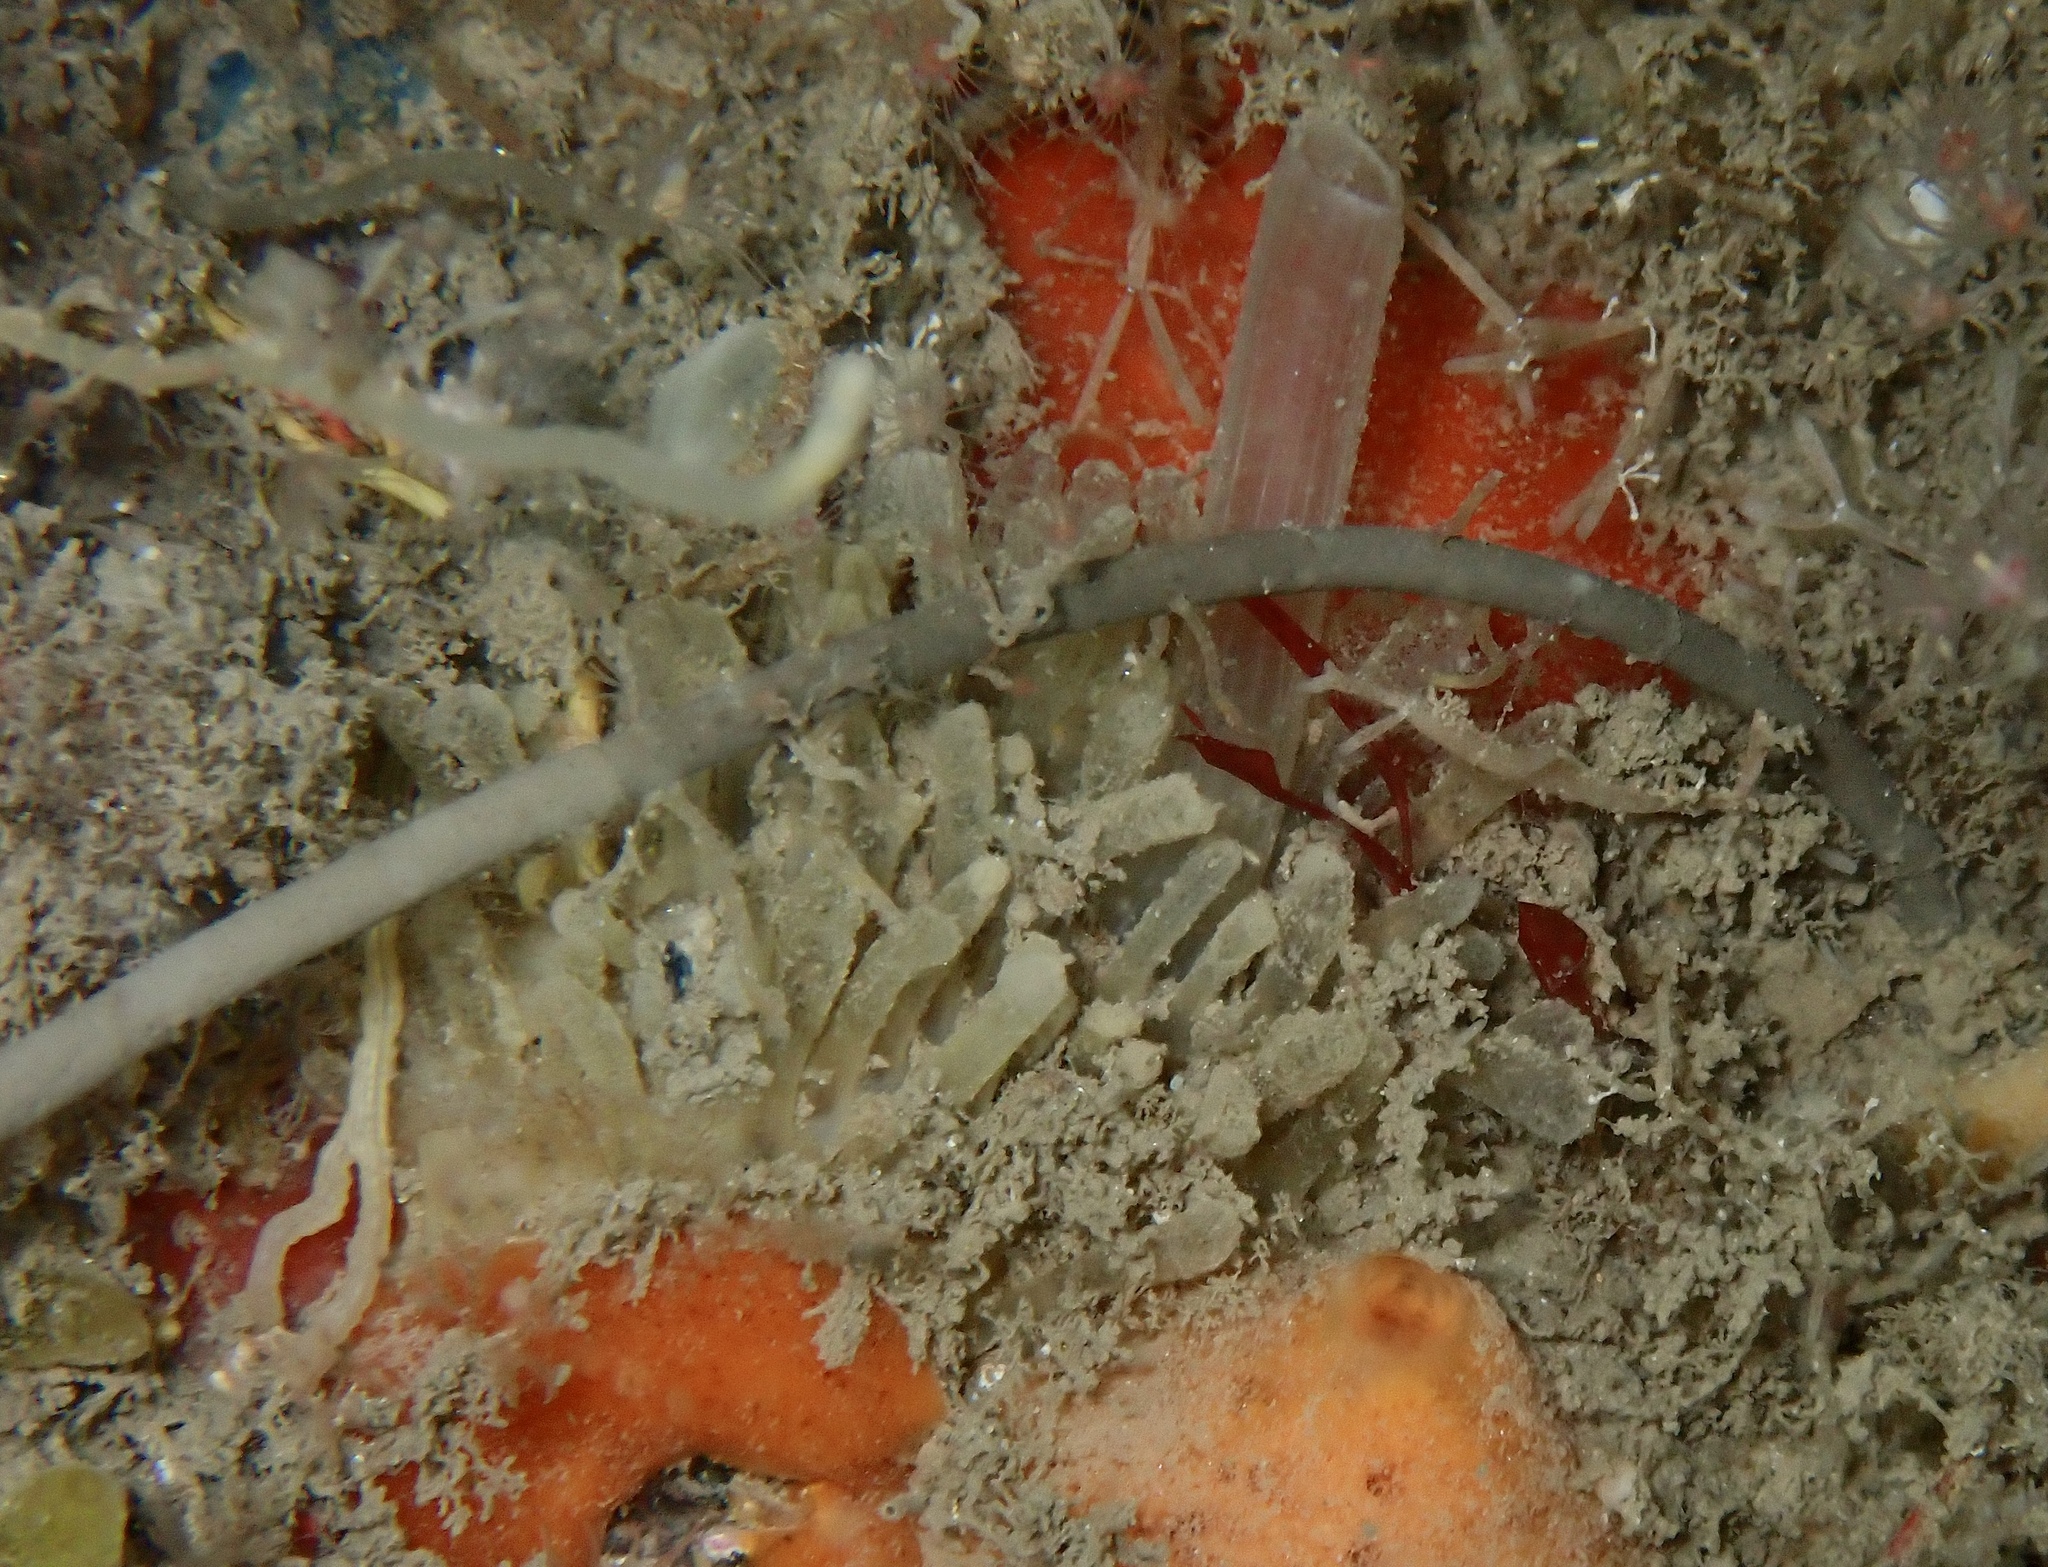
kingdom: Animalia
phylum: Porifera
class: Demospongiae
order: Polymastiida
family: Polymastiidae
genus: Polymastia
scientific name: Polymastia penicillus
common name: Chimney sponge
